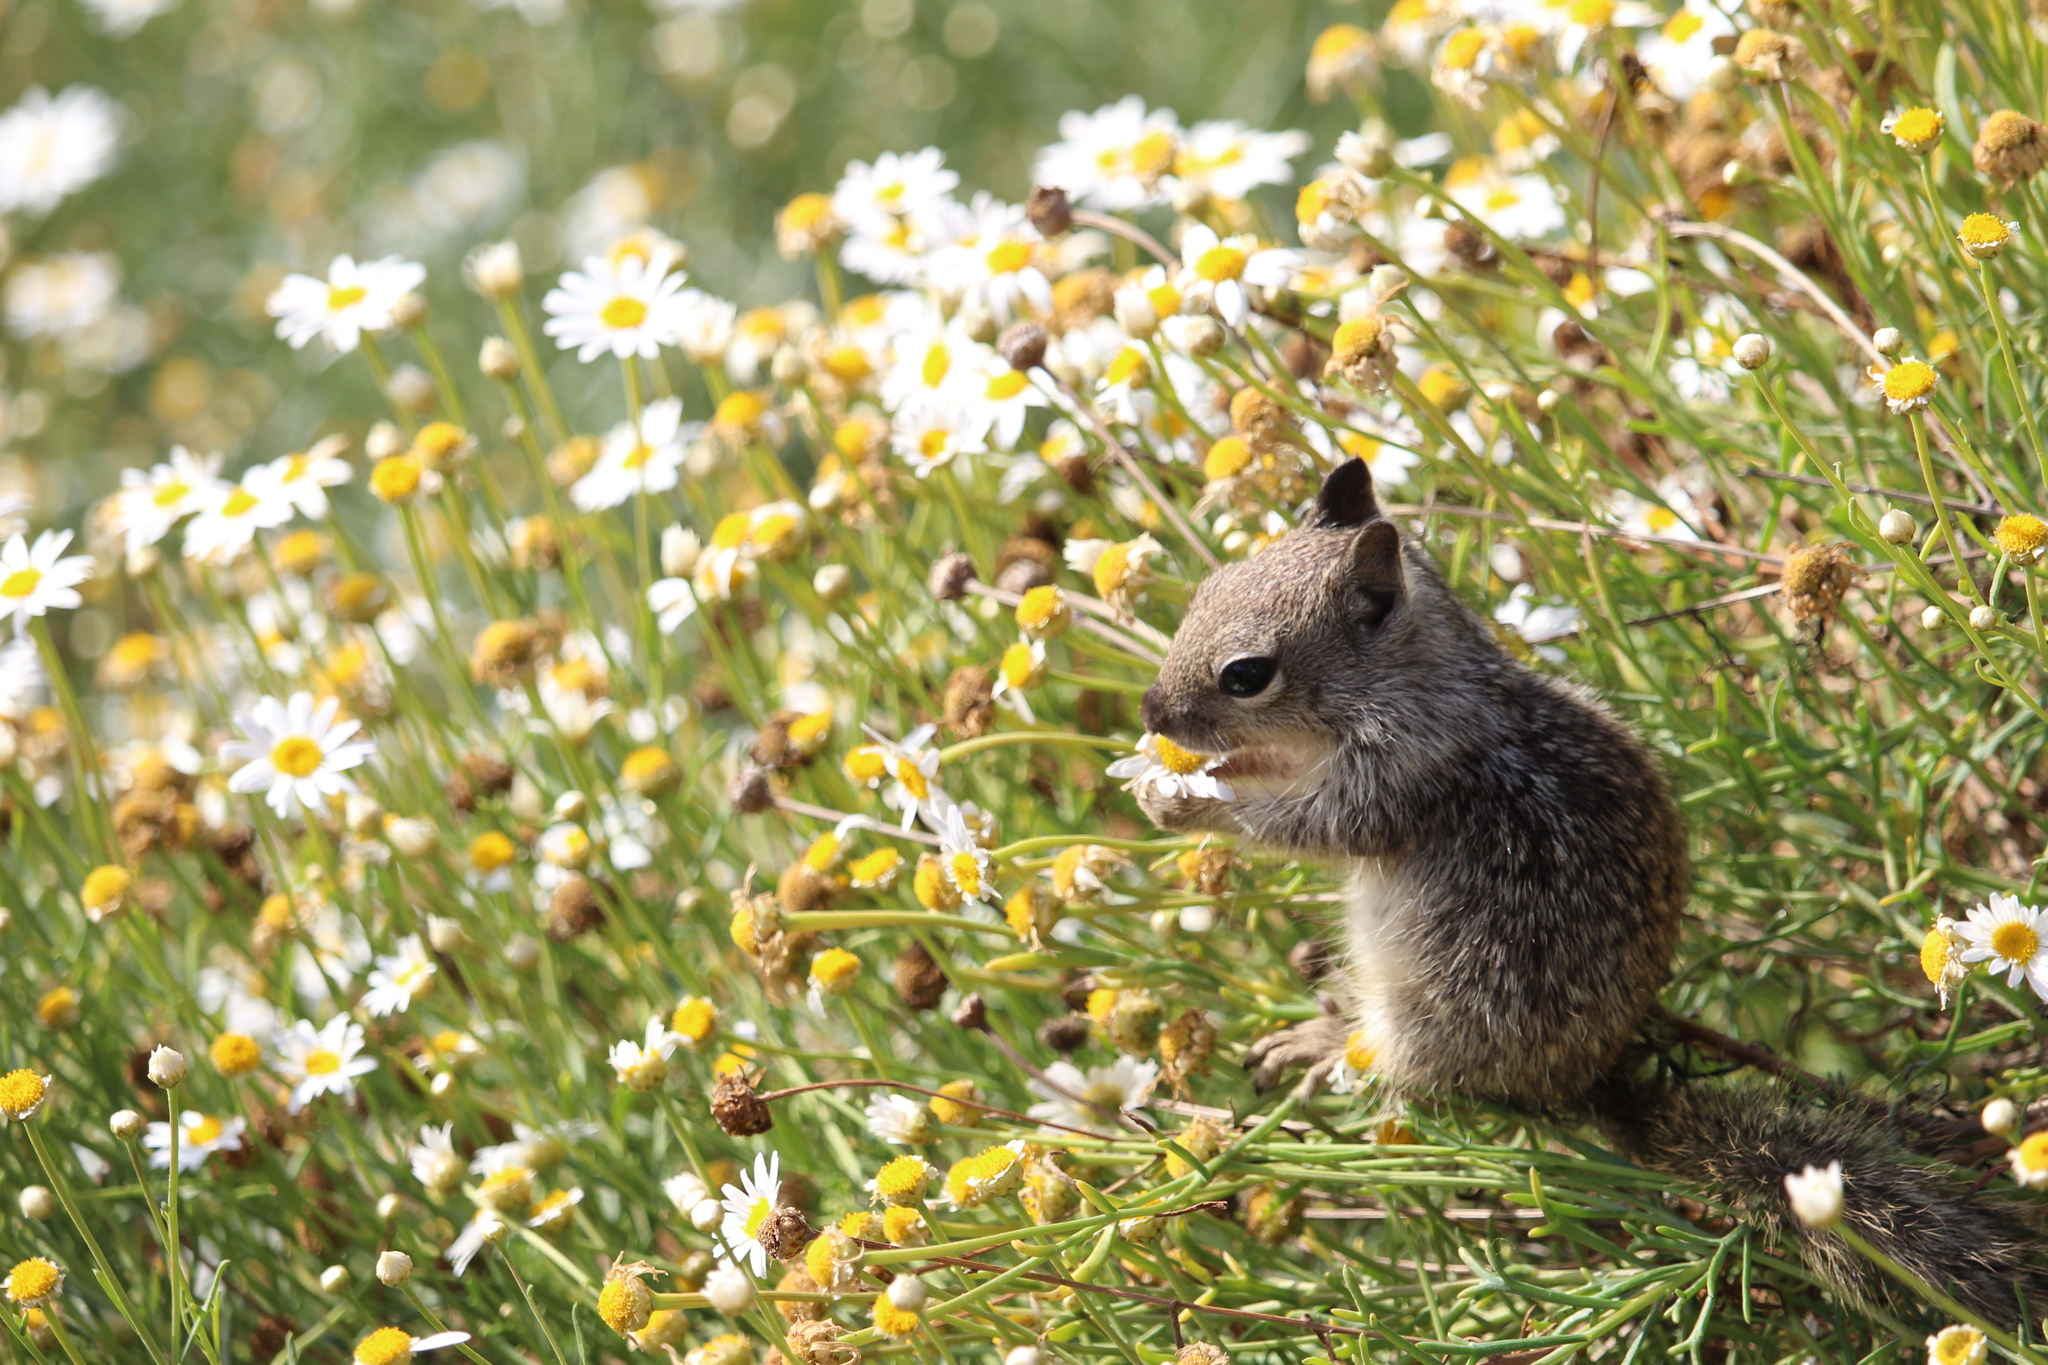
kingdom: Animalia
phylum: Chordata
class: Mammalia
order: Rodentia
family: Sciuridae
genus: Otospermophilus
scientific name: Otospermophilus beecheyi
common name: California ground squirrel
